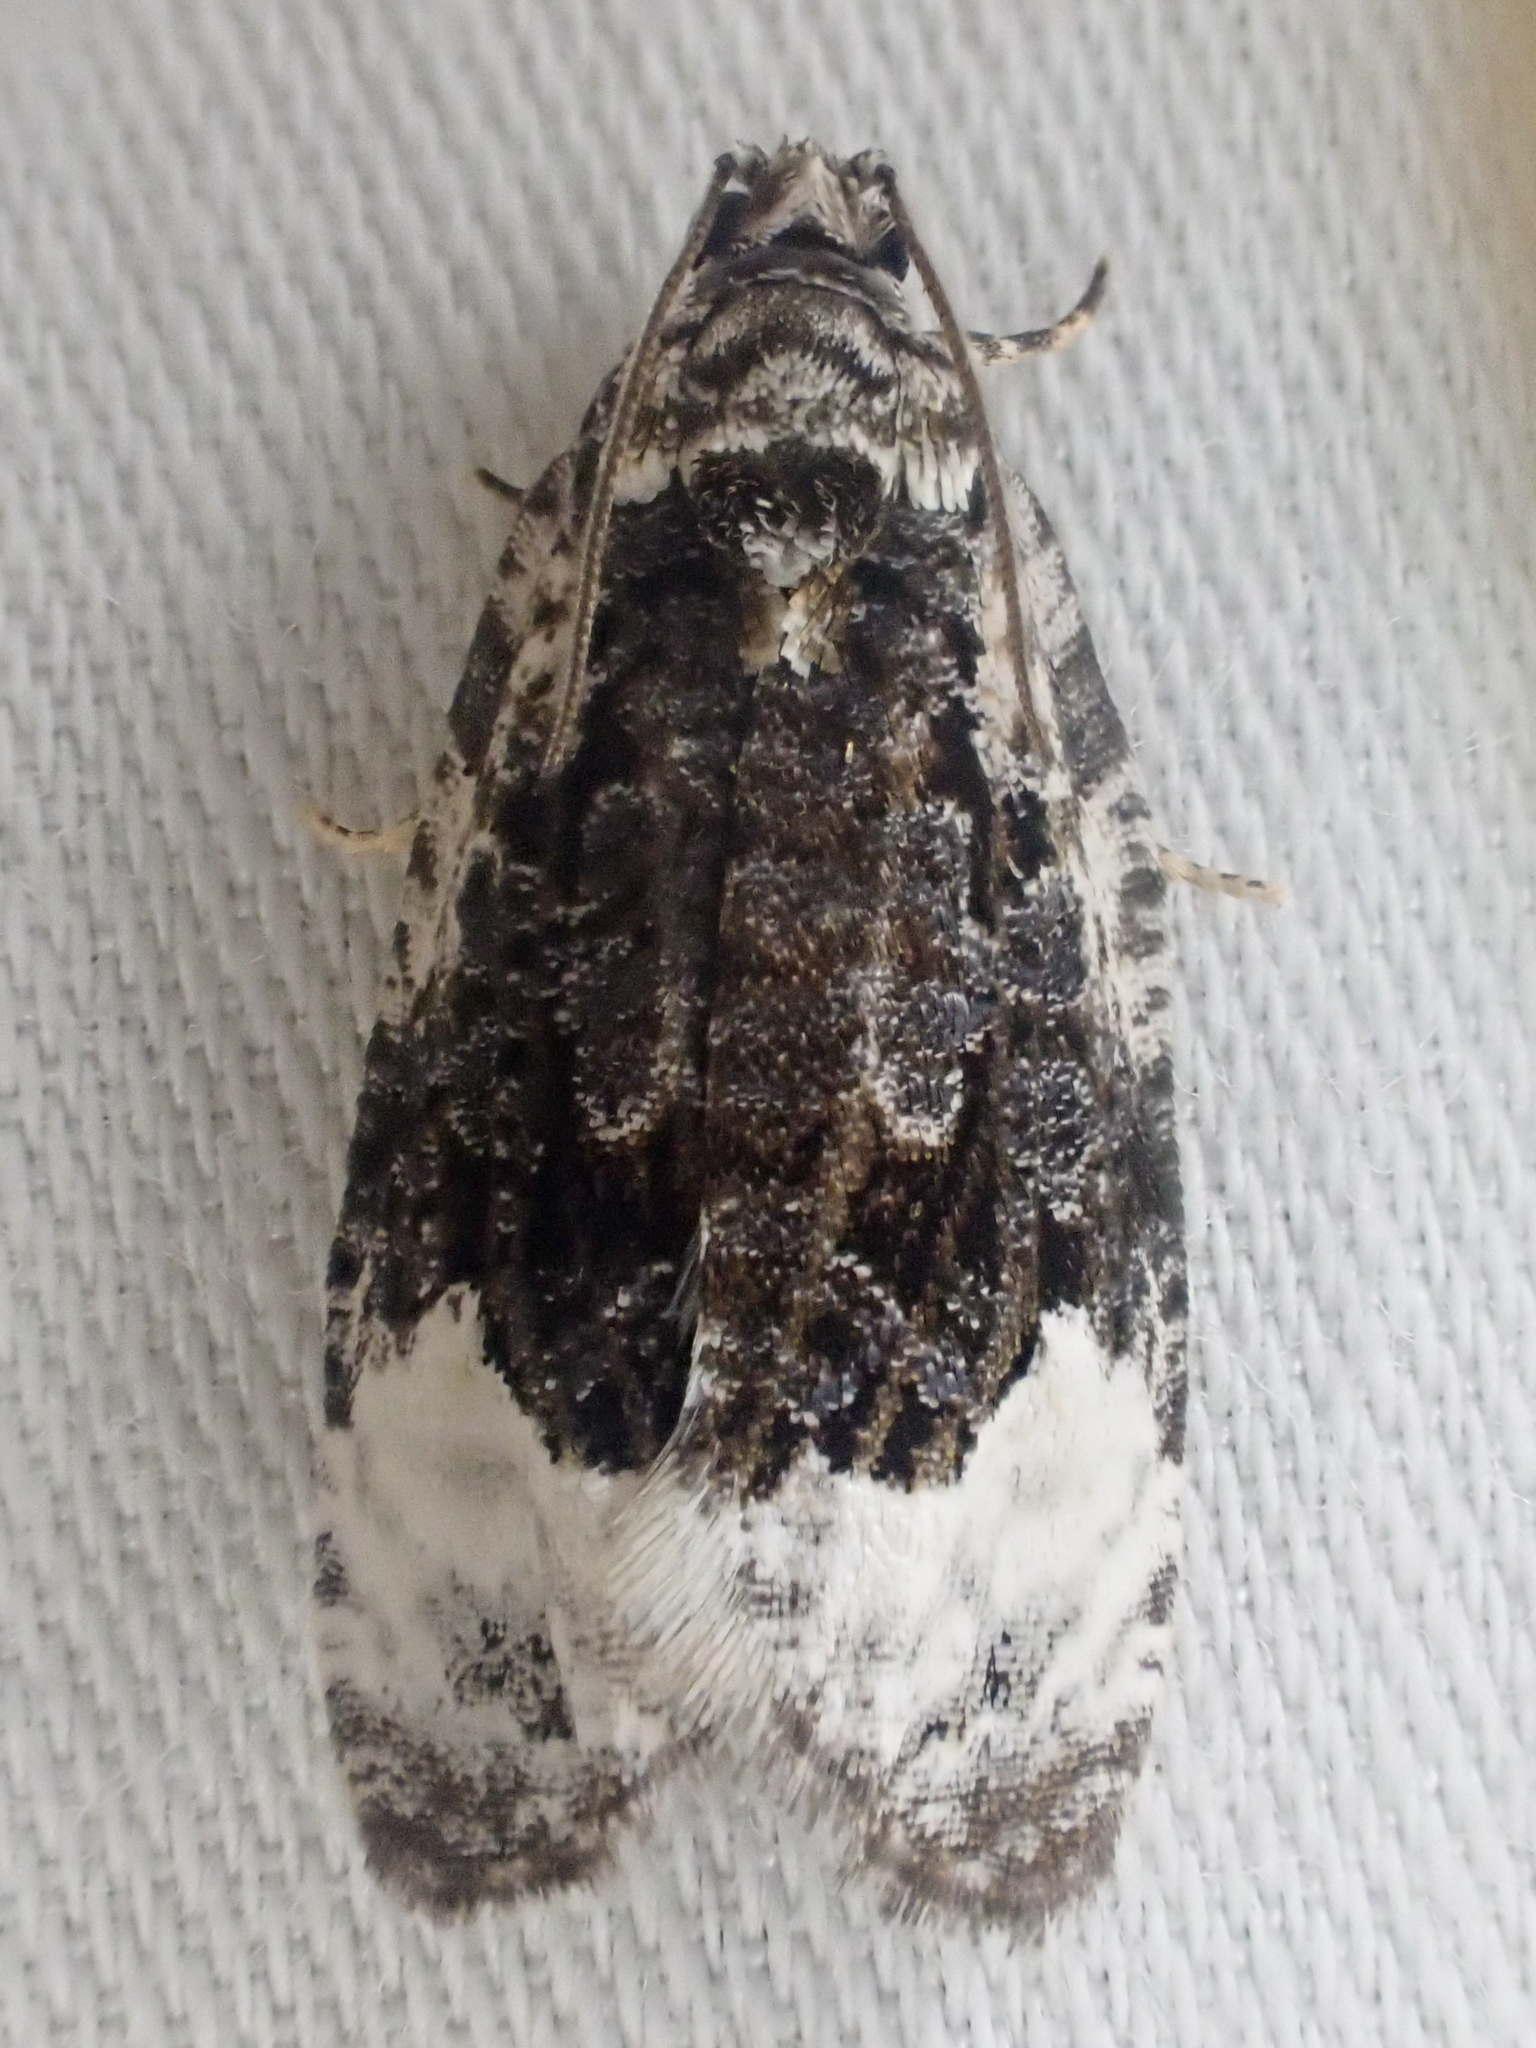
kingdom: Animalia
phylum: Arthropoda
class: Insecta
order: Lepidoptera
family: Tortricidae
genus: Apotomis
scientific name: Apotomis capreana
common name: Sallow marble
